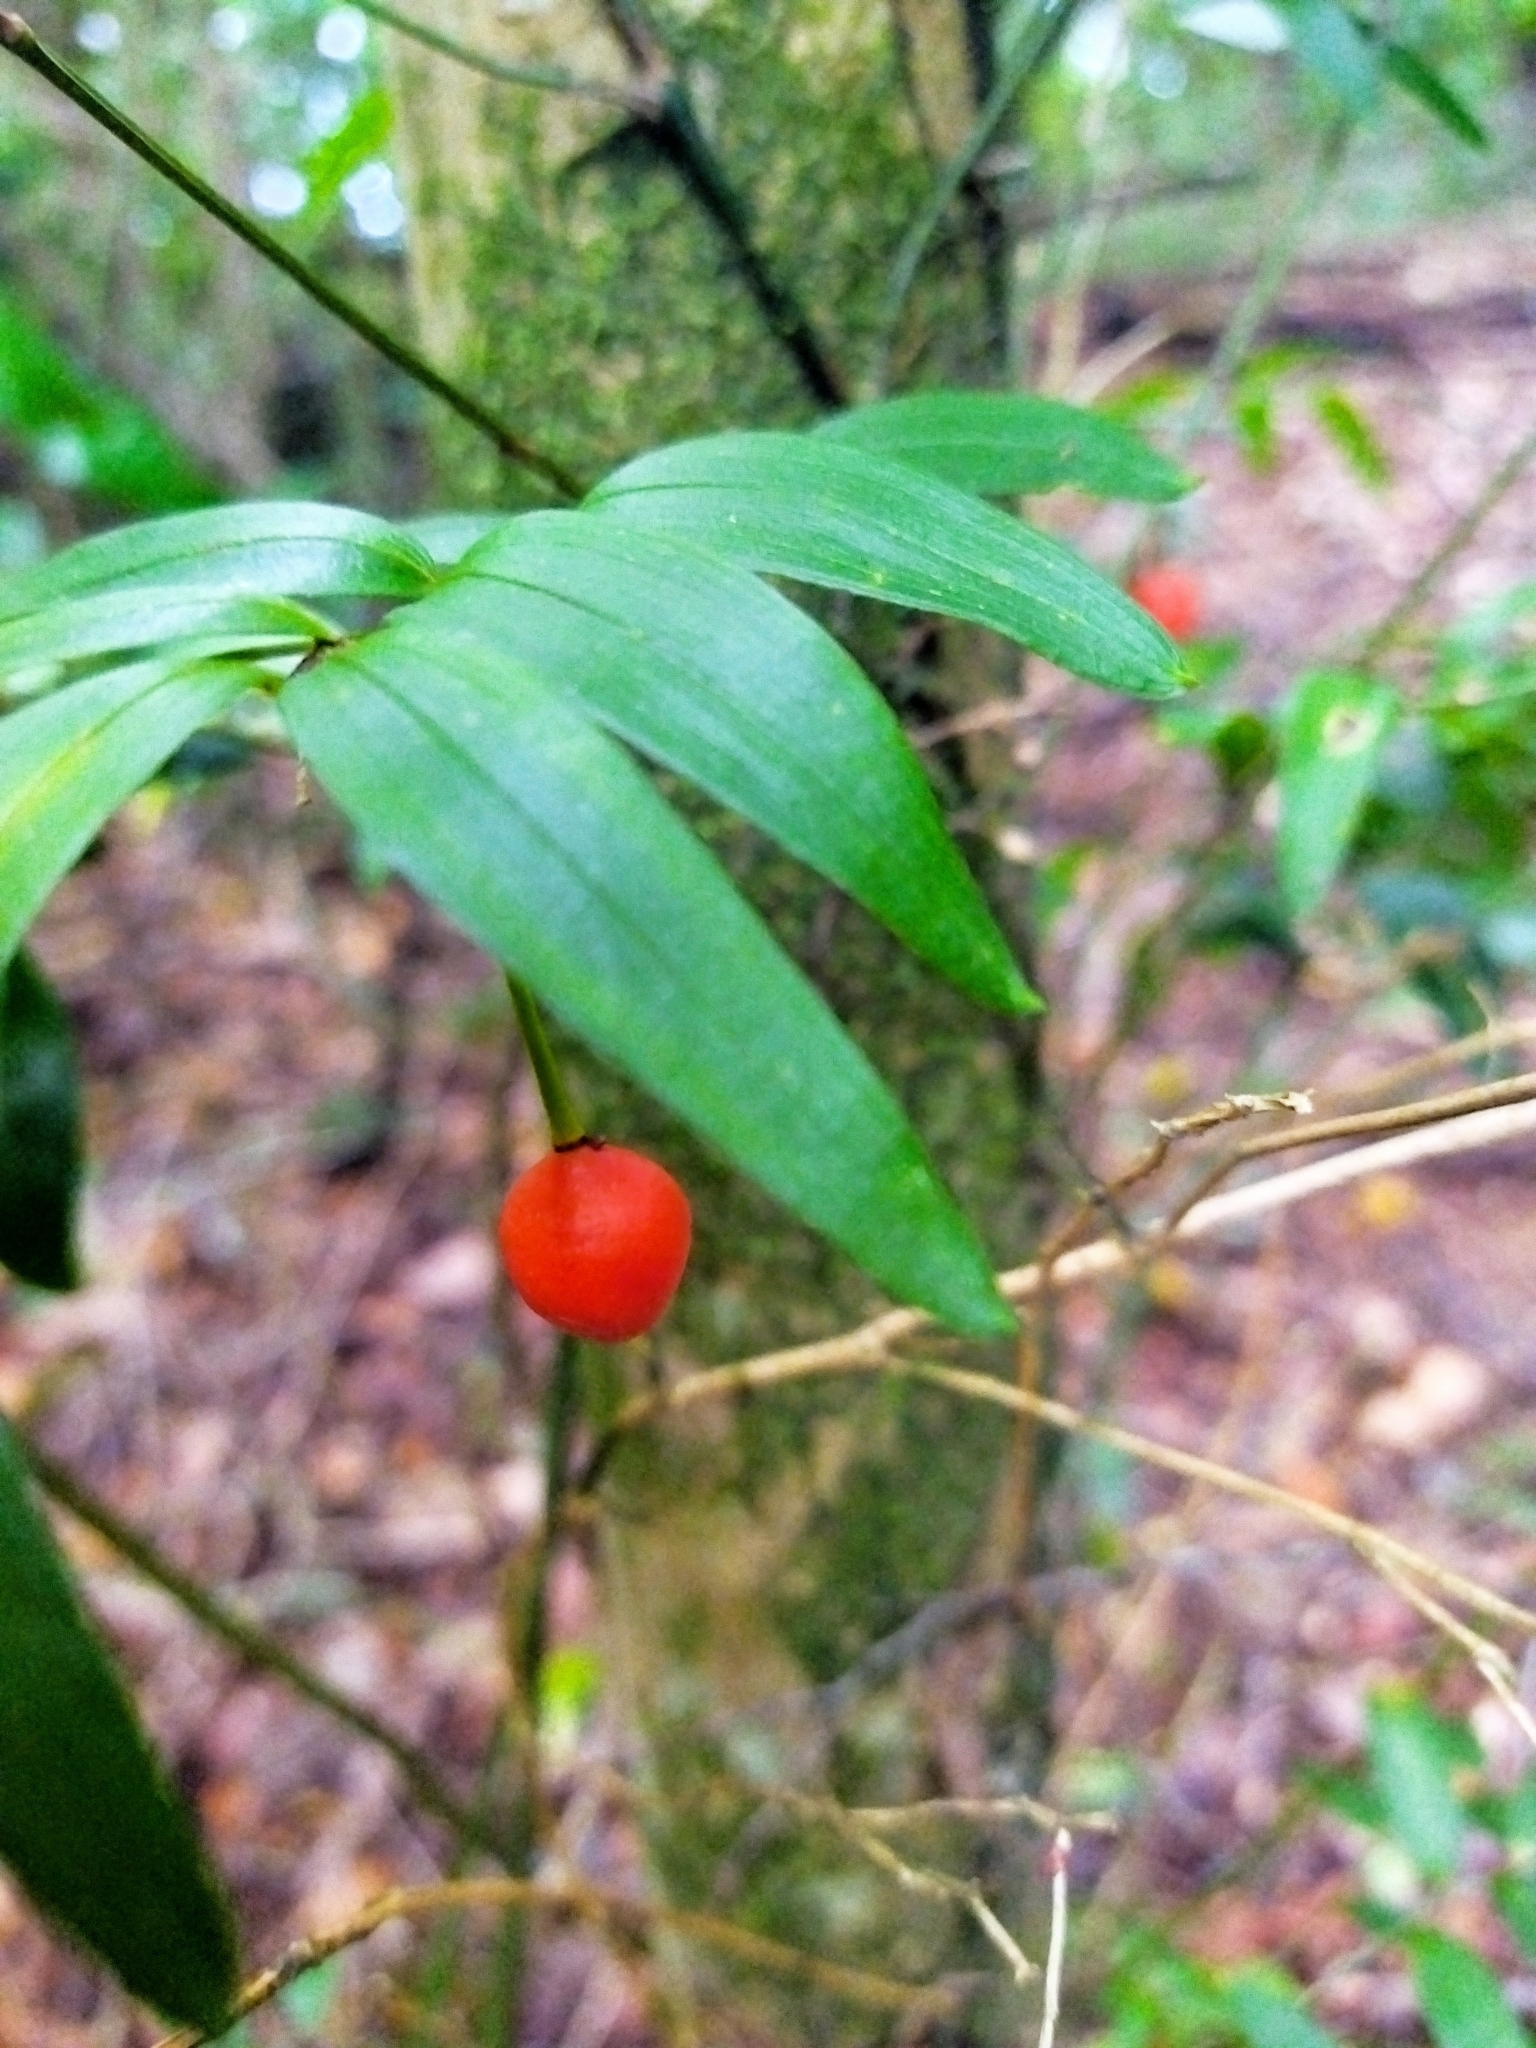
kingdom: Plantae
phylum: Tracheophyta
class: Liliopsida
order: Liliales
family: Alstroemeriaceae
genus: Luzuriaga
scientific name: Luzuriaga radicans
